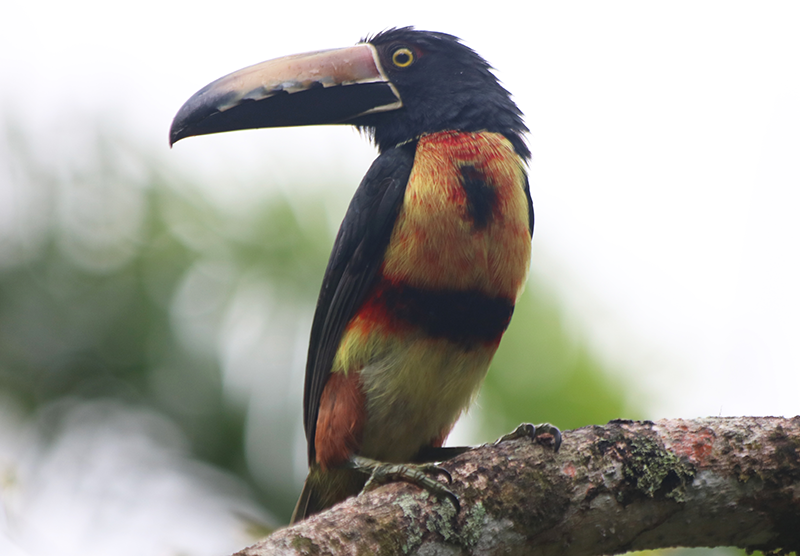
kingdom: Animalia
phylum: Chordata
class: Aves
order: Piciformes
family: Ramphastidae
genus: Pteroglossus
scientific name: Pteroglossus torquatus
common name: Collared aracari
